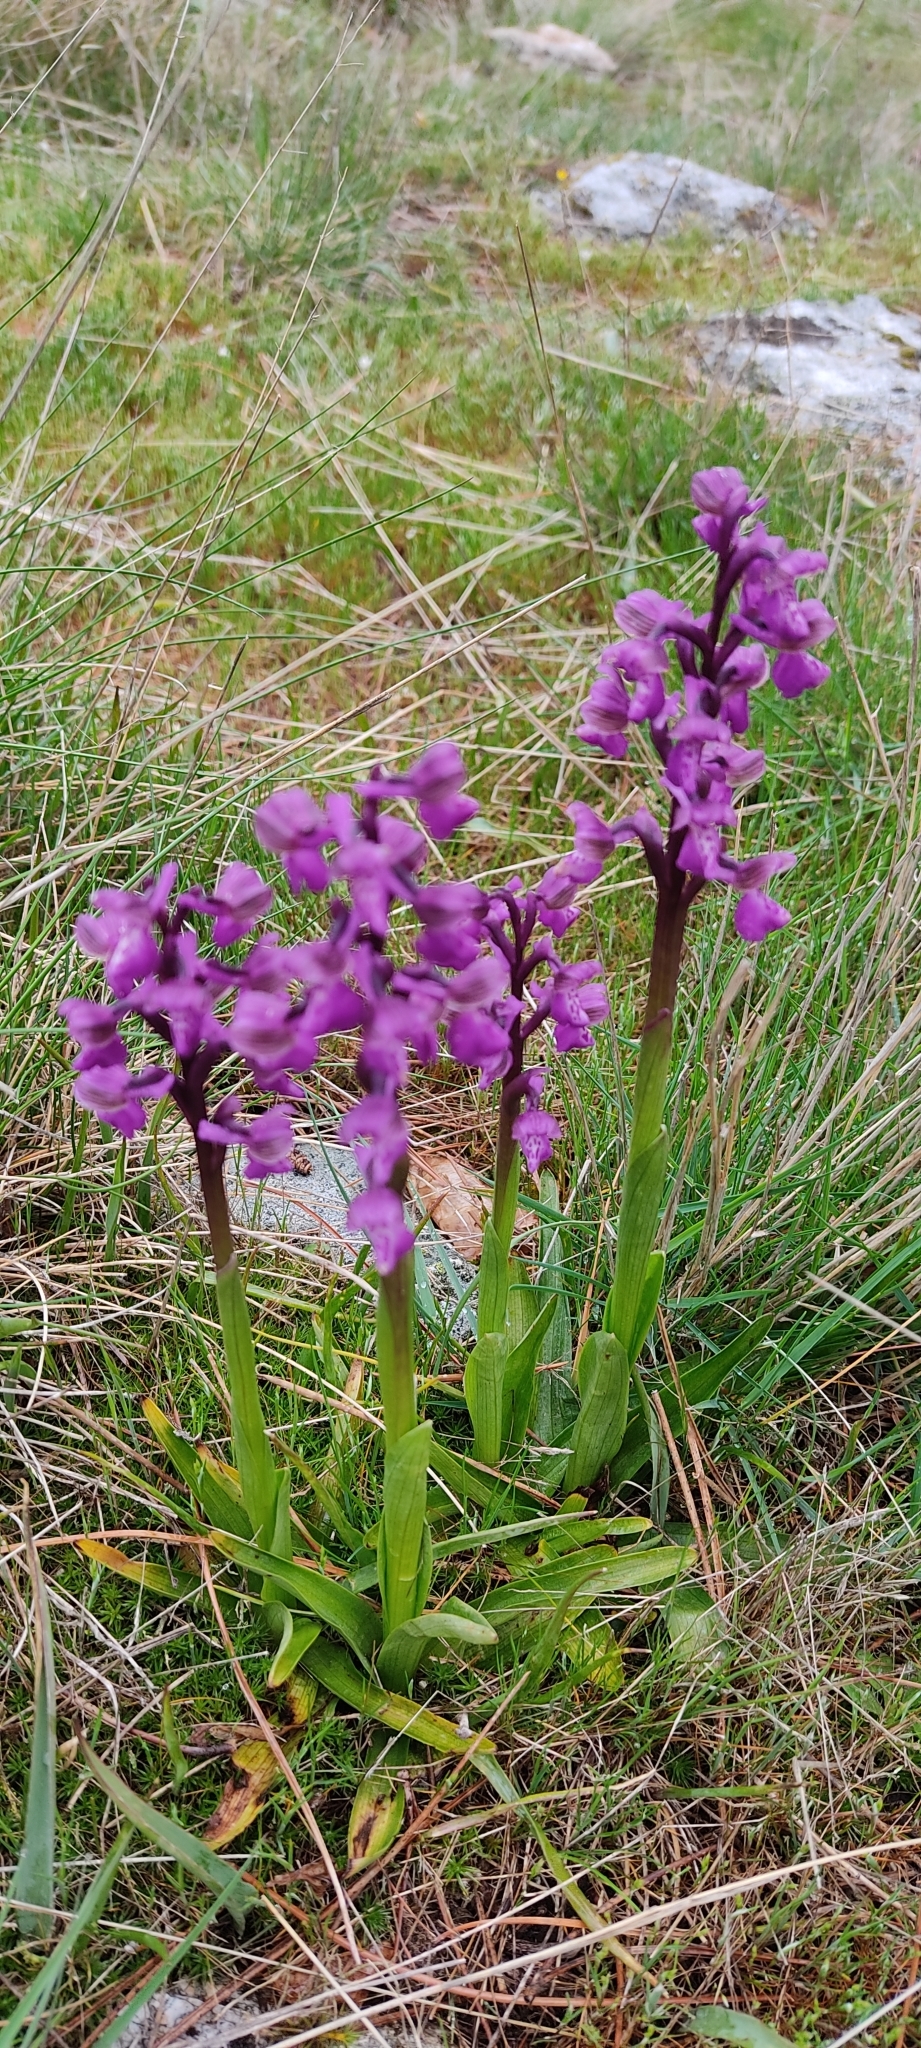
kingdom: Plantae
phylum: Tracheophyta
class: Liliopsida
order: Asparagales
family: Orchidaceae
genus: Anacamptis
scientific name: Anacamptis morio
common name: Green-winged orchid
